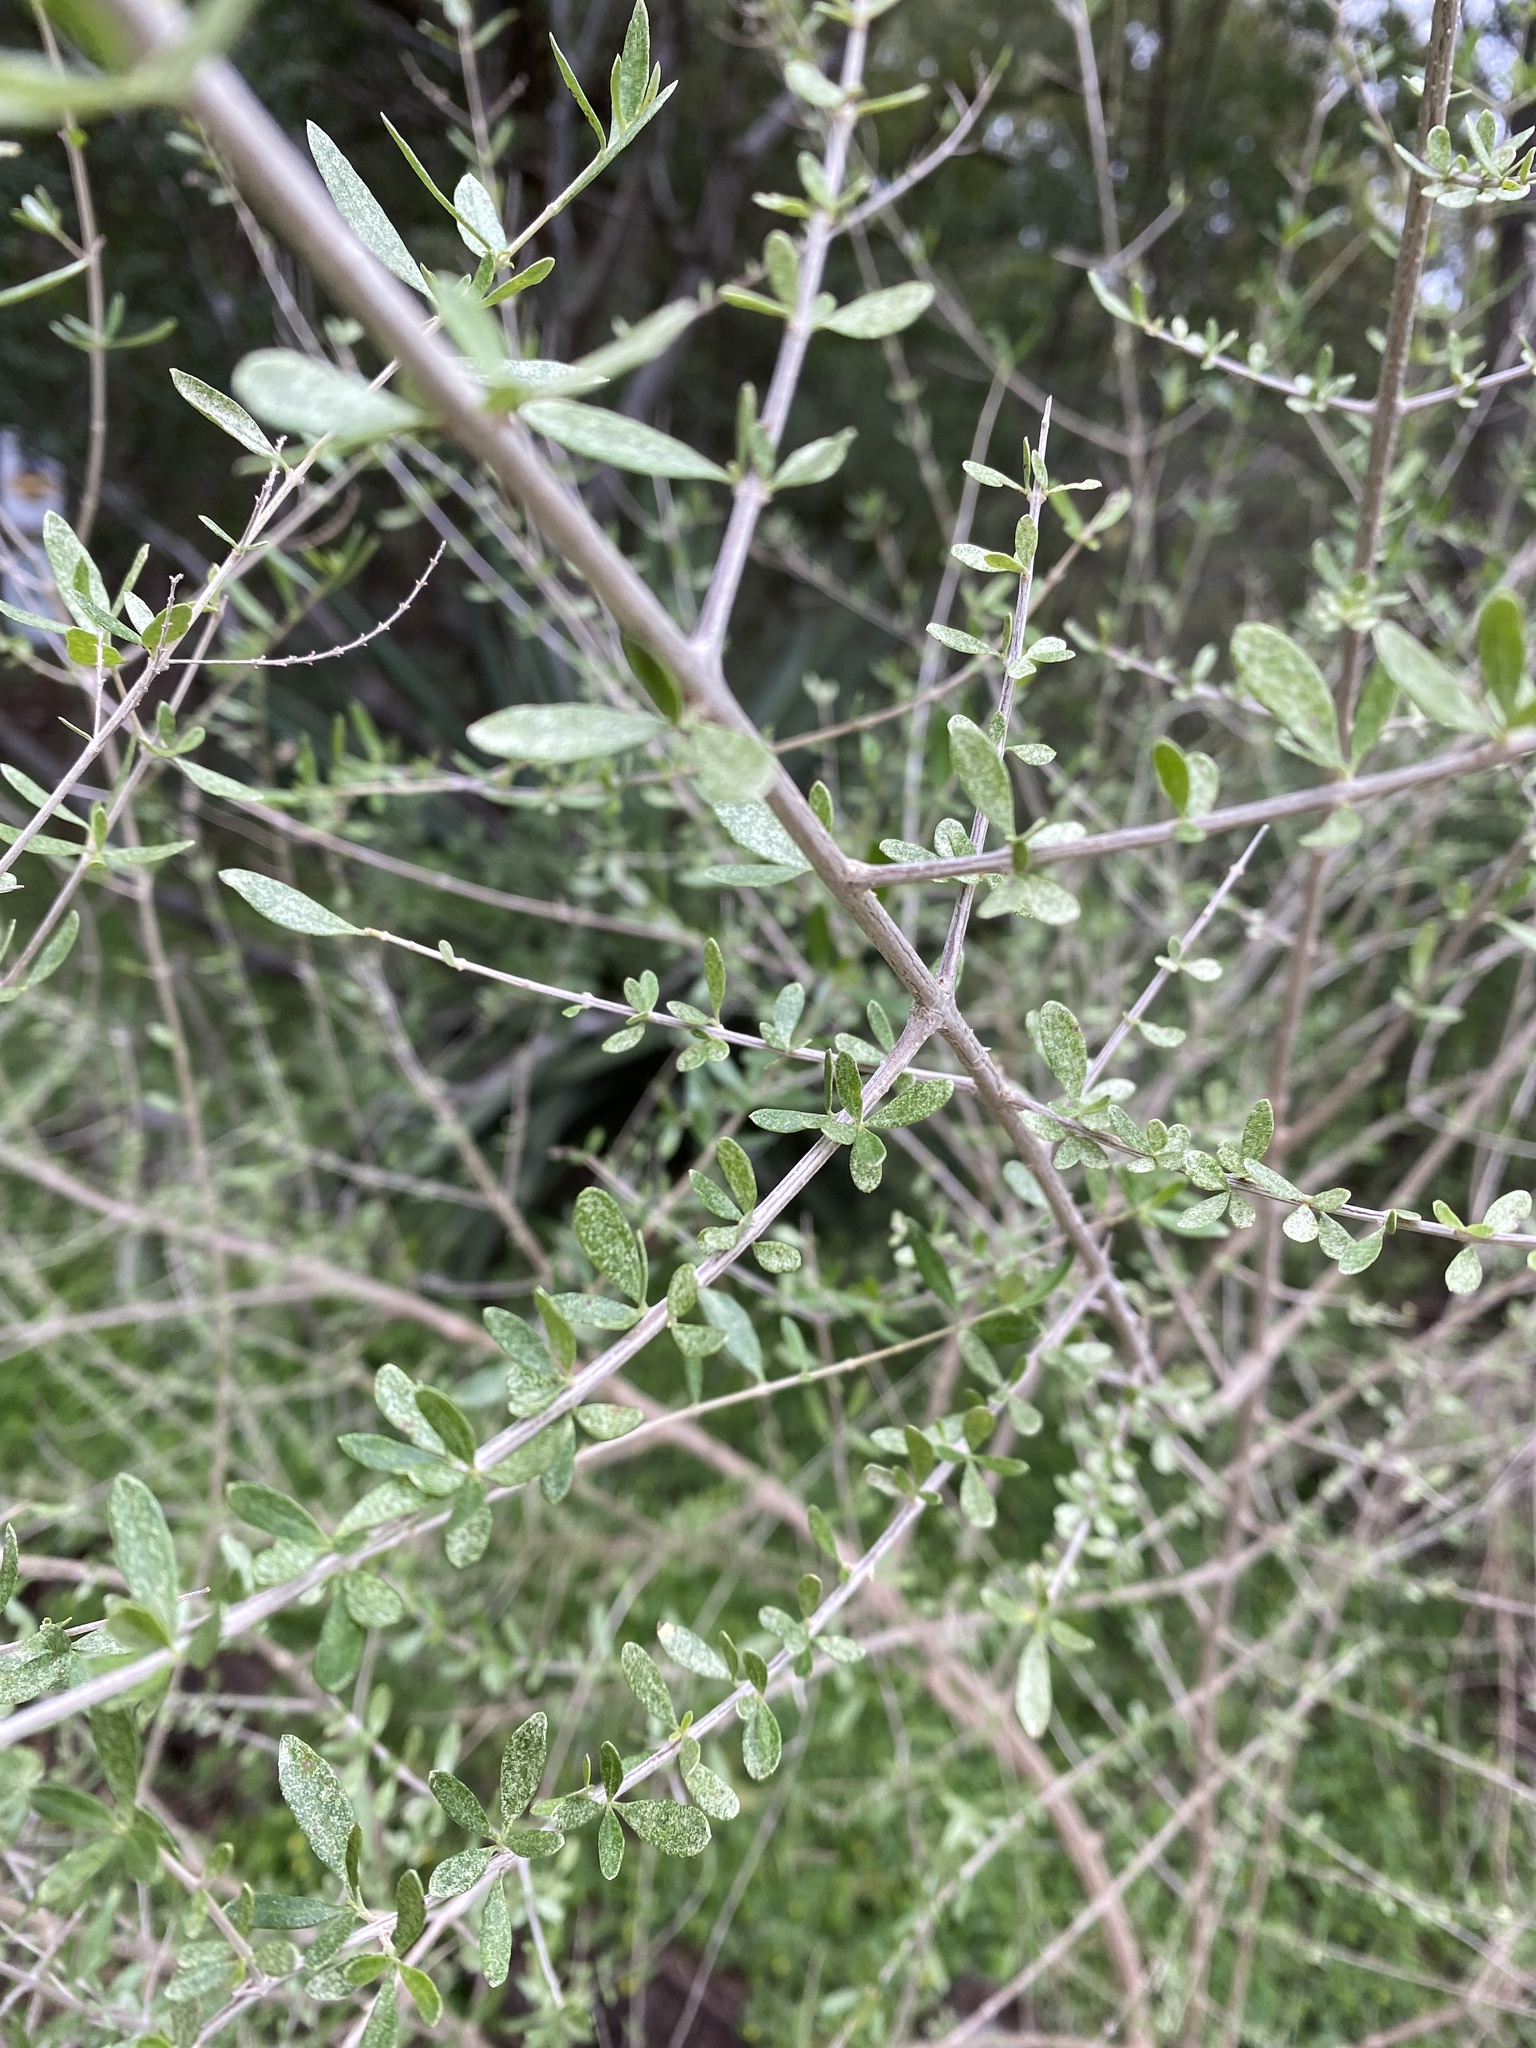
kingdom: Plantae
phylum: Tracheophyta
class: Magnoliopsida
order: Lamiales
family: Verbenaceae
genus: Aloysia
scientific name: Aloysia gratissima
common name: Common bee-brush
